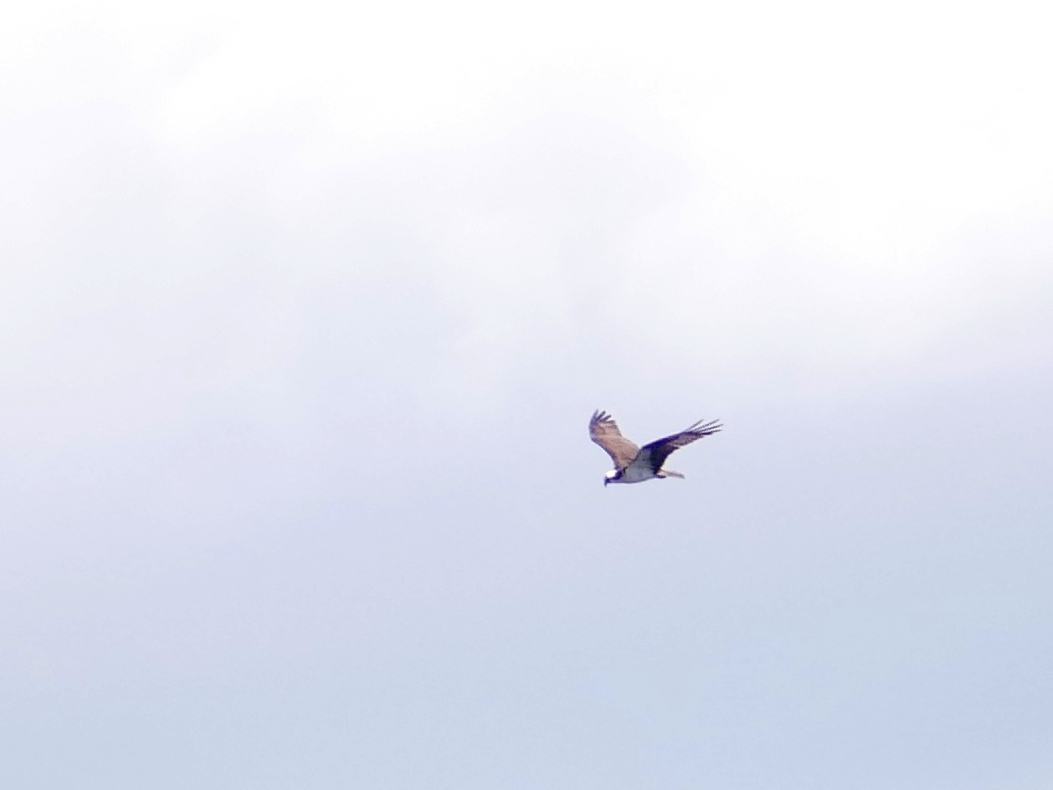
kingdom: Animalia
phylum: Chordata
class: Aves
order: Accipitriformes
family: Pandionidae
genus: Pandion
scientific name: Pandion haliaetus
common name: Osprey
